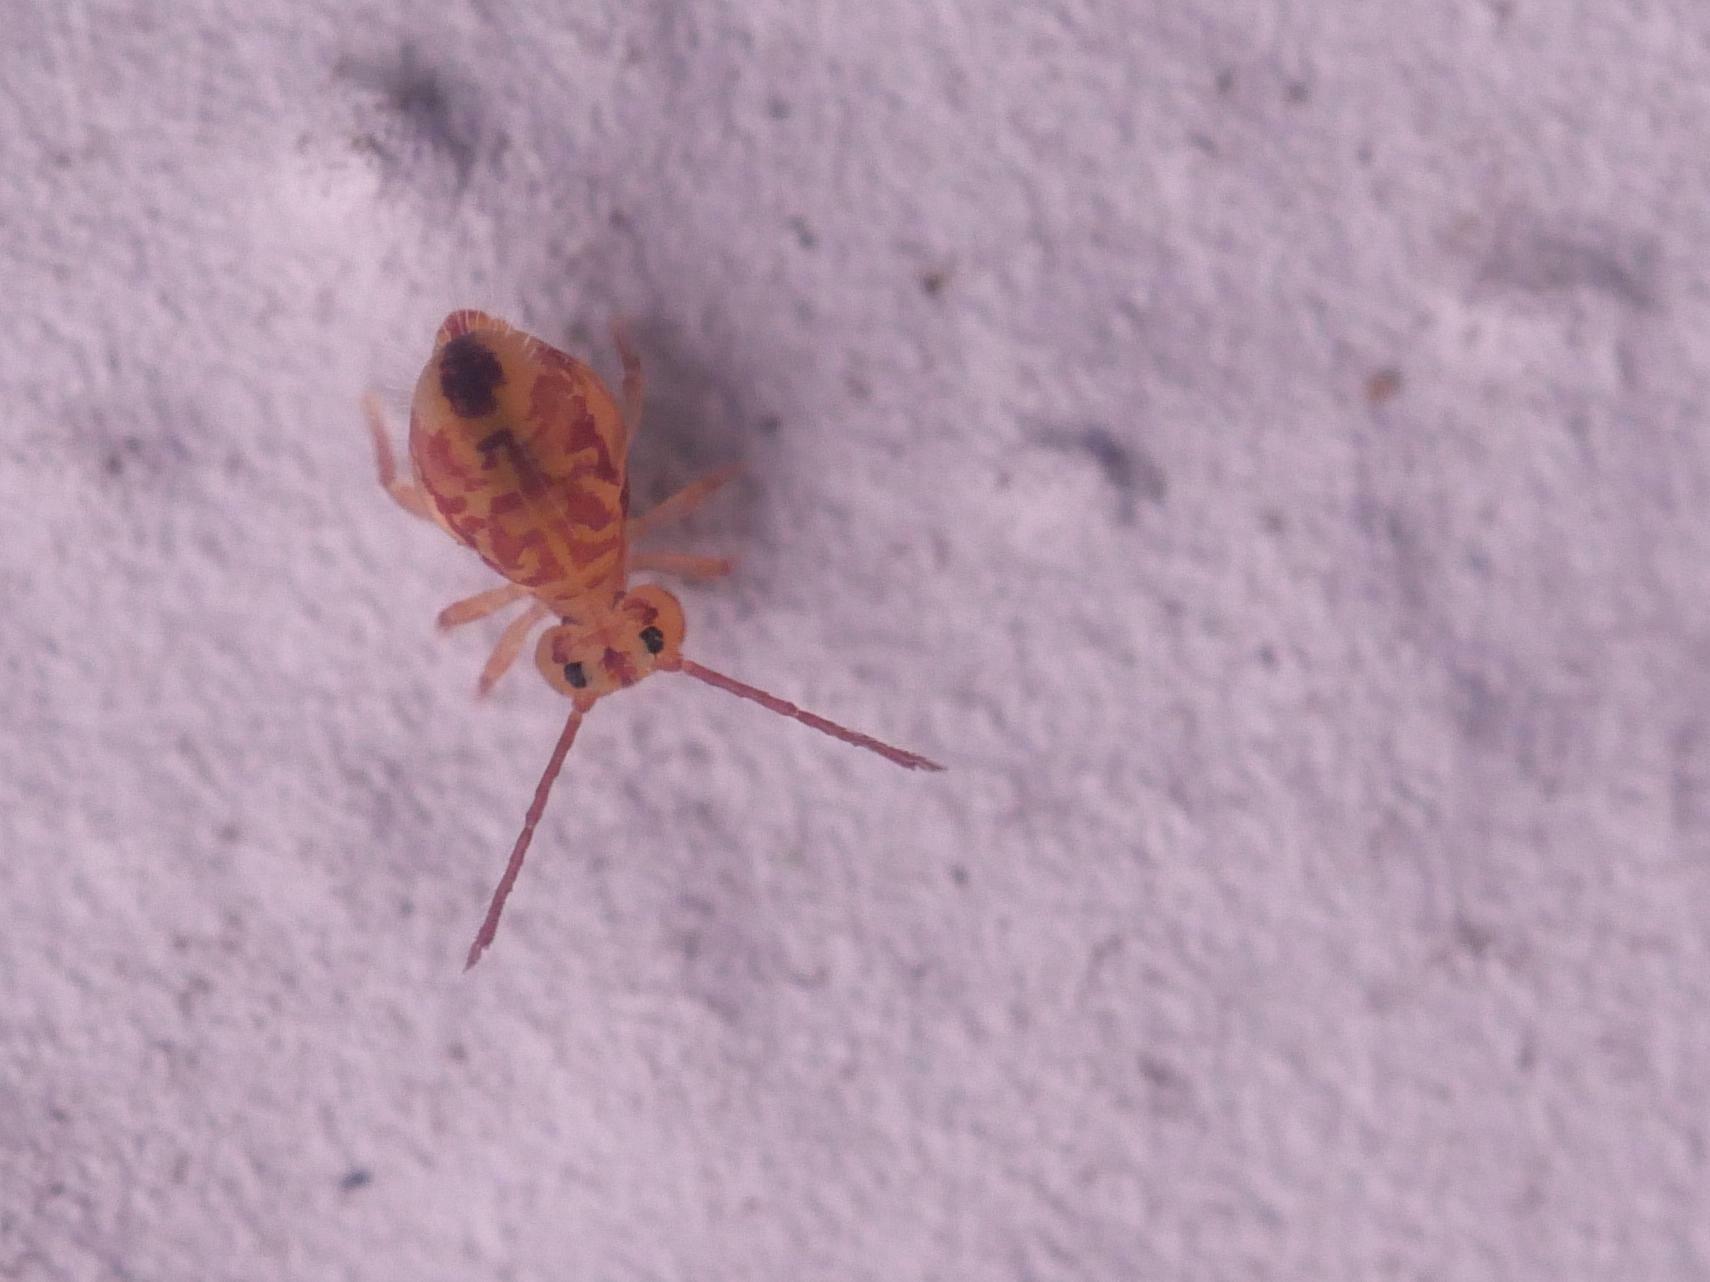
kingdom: Animalia
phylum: Arthropoda
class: Collembola
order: Symphypleona
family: Dicyrtomidae
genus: Dicyrtomina
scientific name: Dicyrtomina ornata
